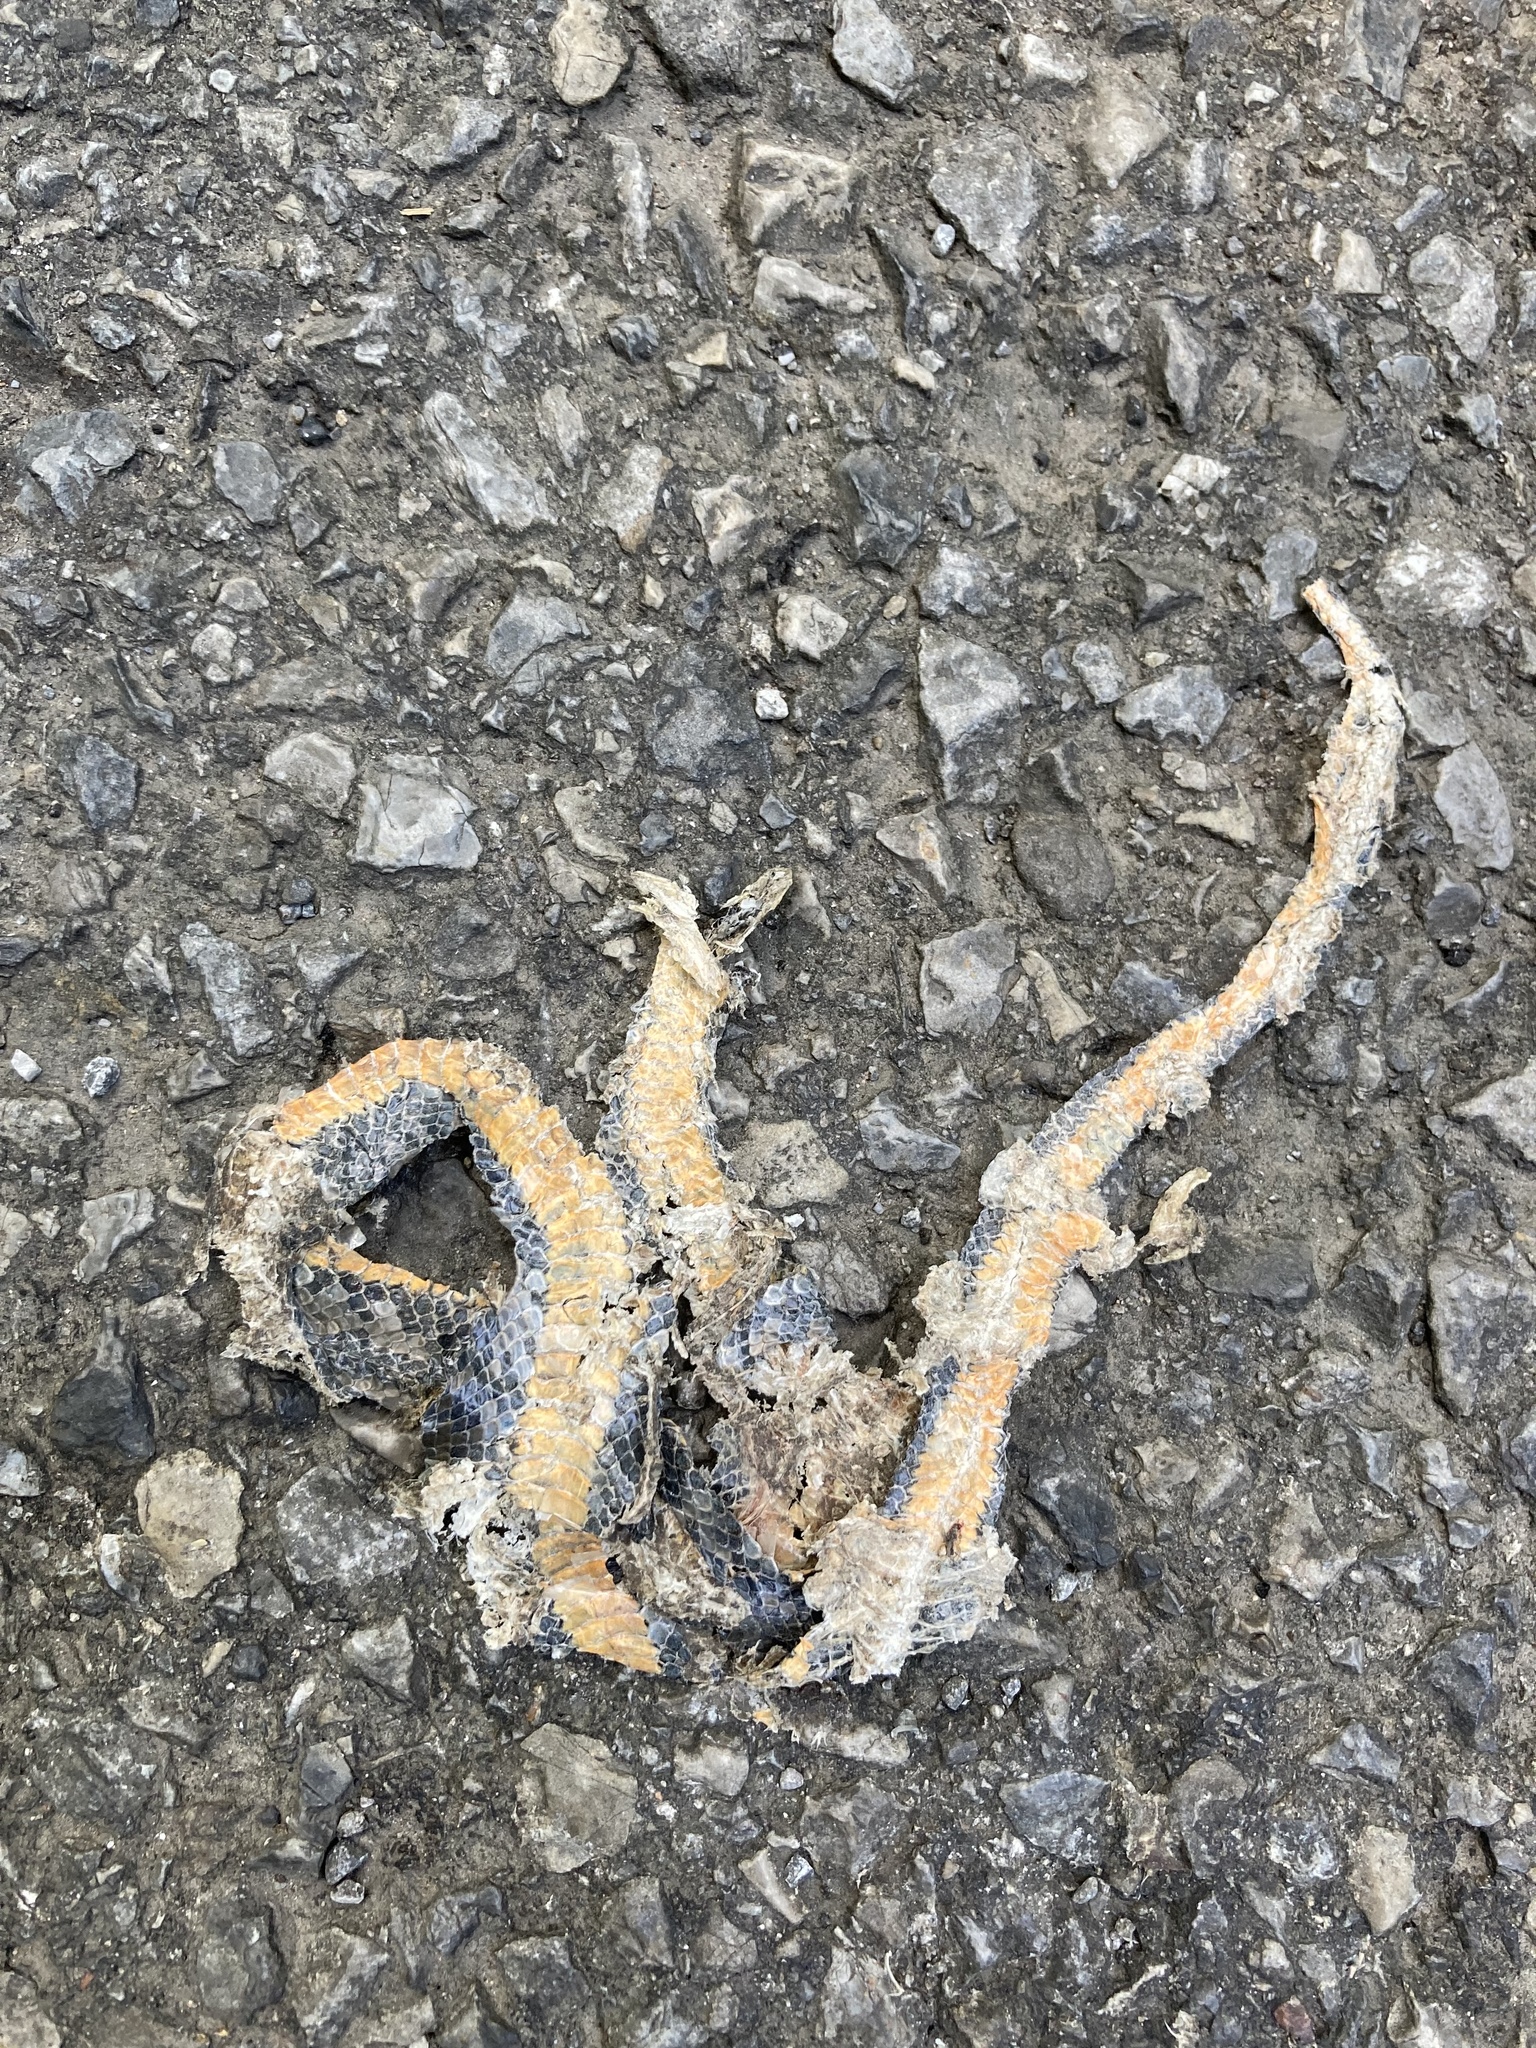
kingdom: Animalia
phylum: Chordata
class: Squamata
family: Colubridae
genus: Diadophis
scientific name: Diadophis punctatus
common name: Ringneck snake
